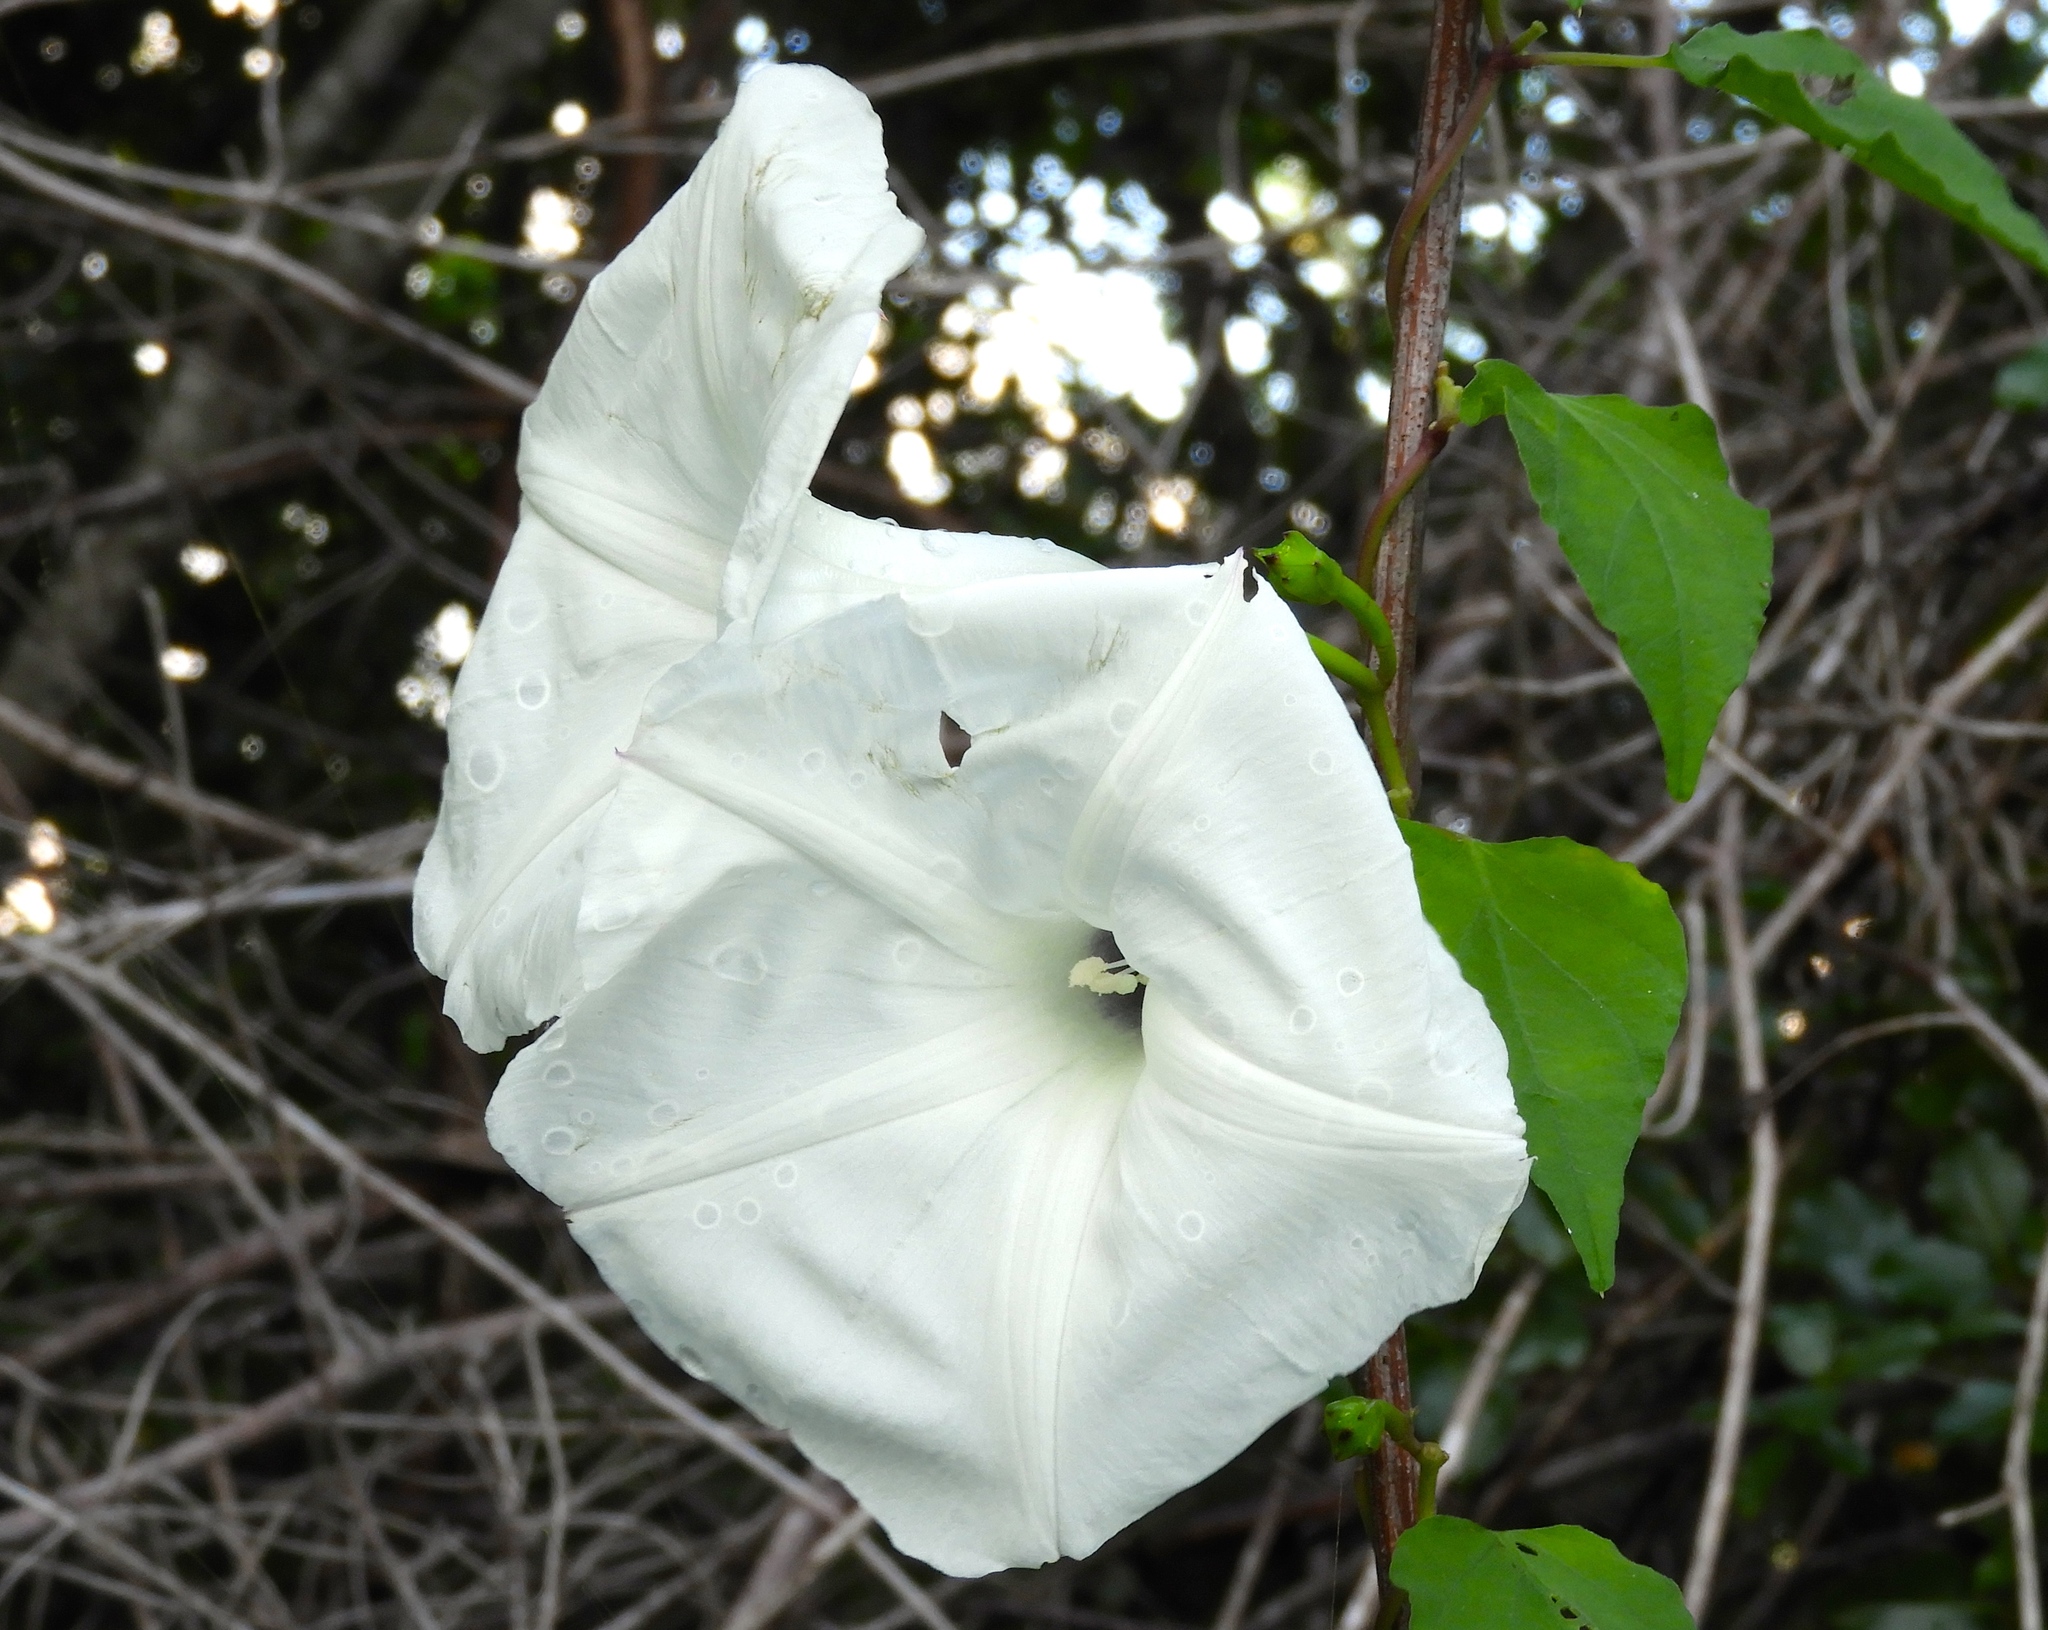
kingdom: Plantae
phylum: Tracheophyta
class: Magnoliopsida
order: Solanales
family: Convolvulaceae
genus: Ipomoea
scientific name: Ipomoea scopulorum
